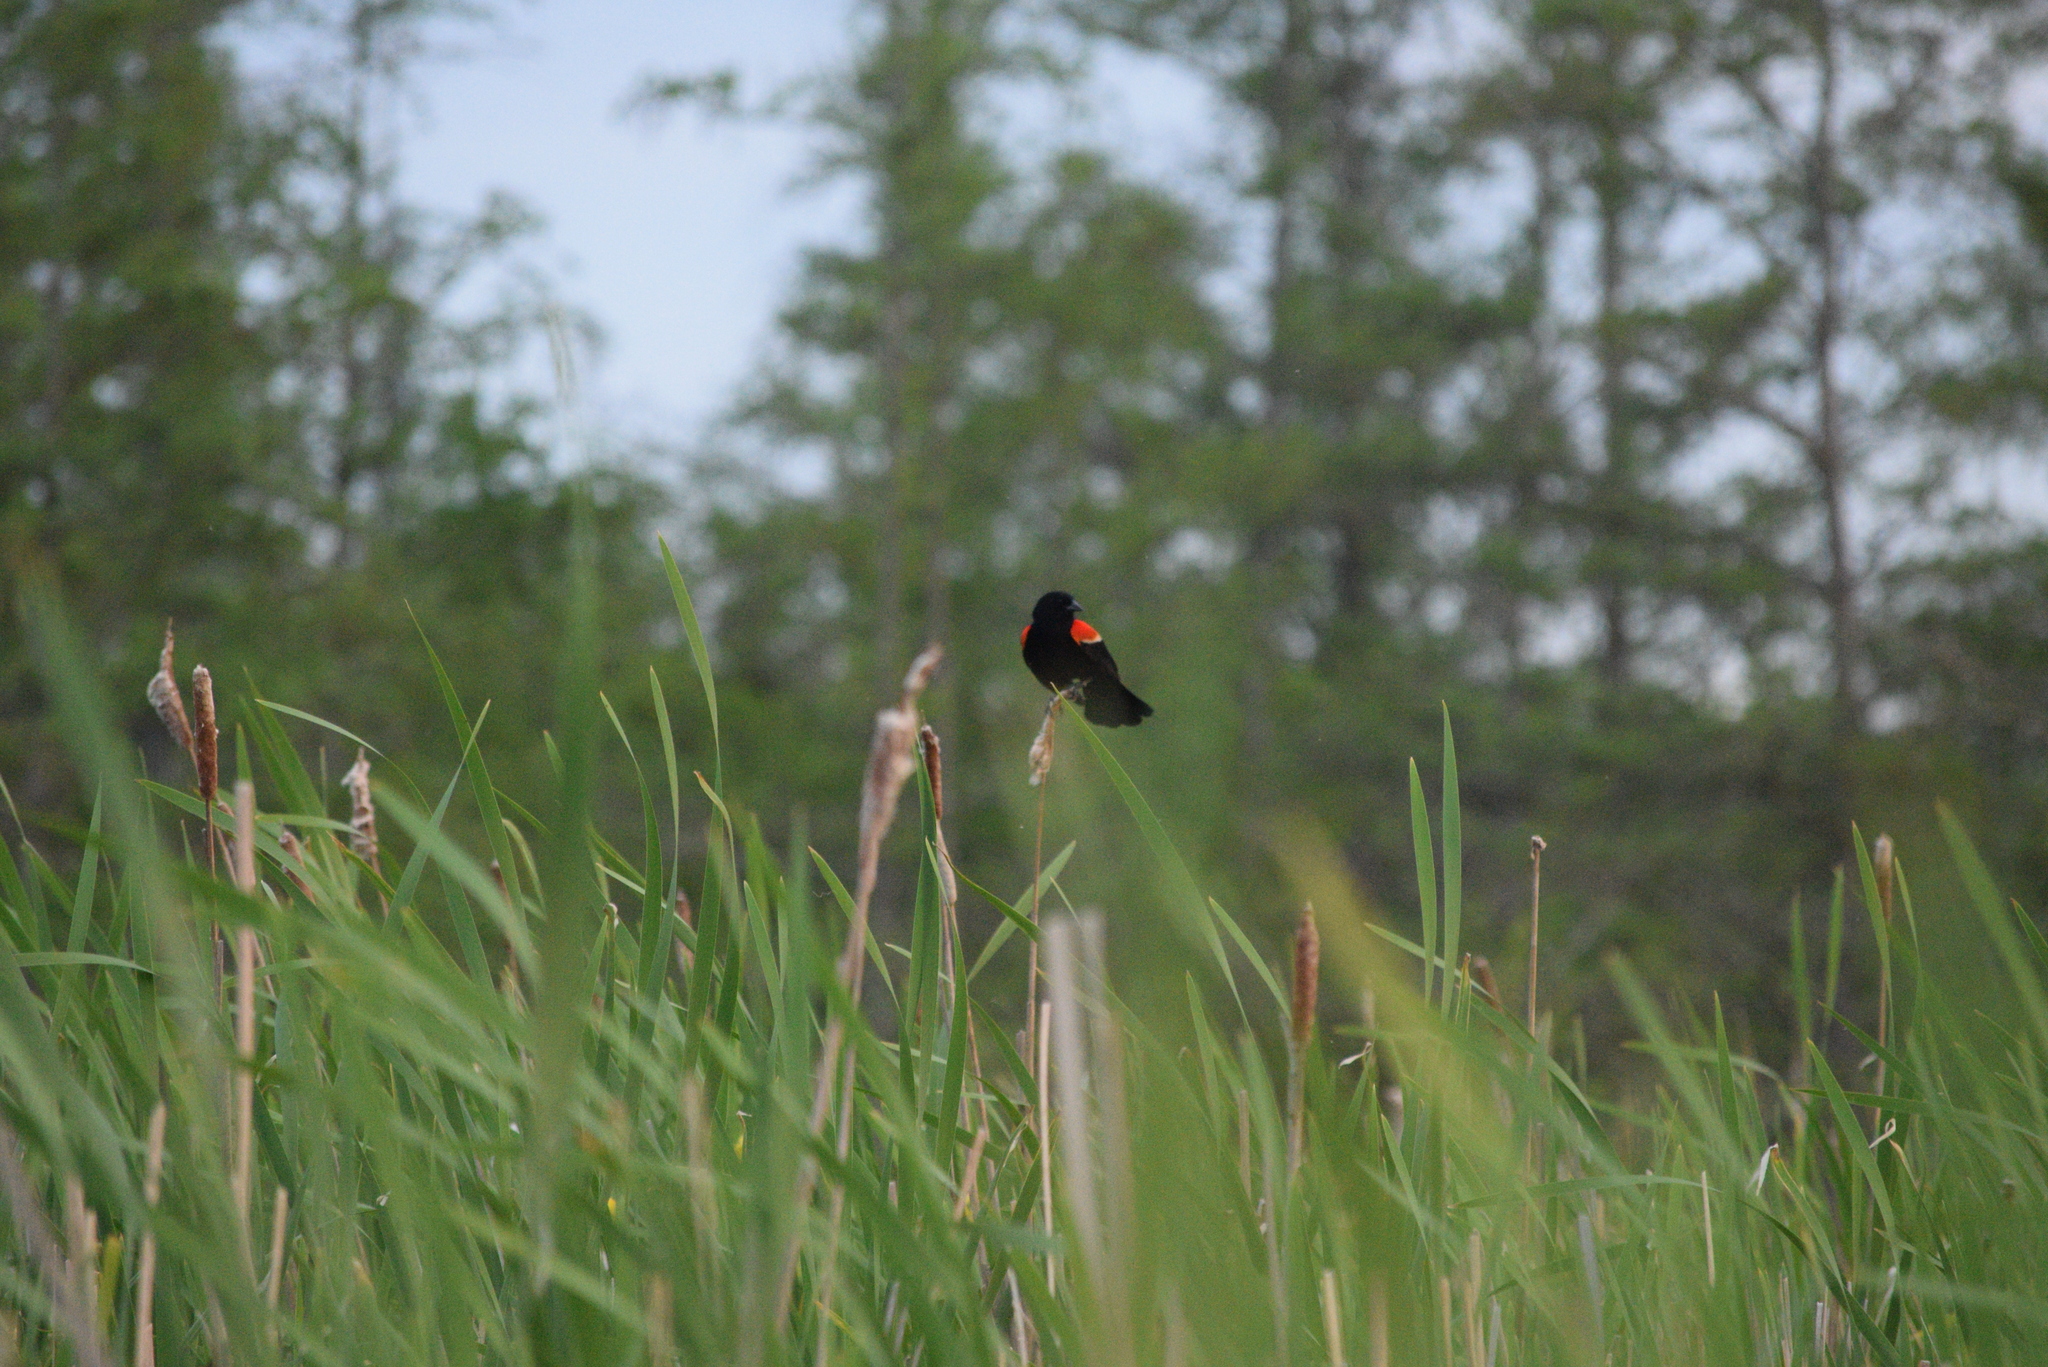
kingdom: Animalia
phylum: Chordata
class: Aves
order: Passeriformes
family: Icteridae
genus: Agelaius
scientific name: Agelaius phoeniceus
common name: Red-winged blackbird
